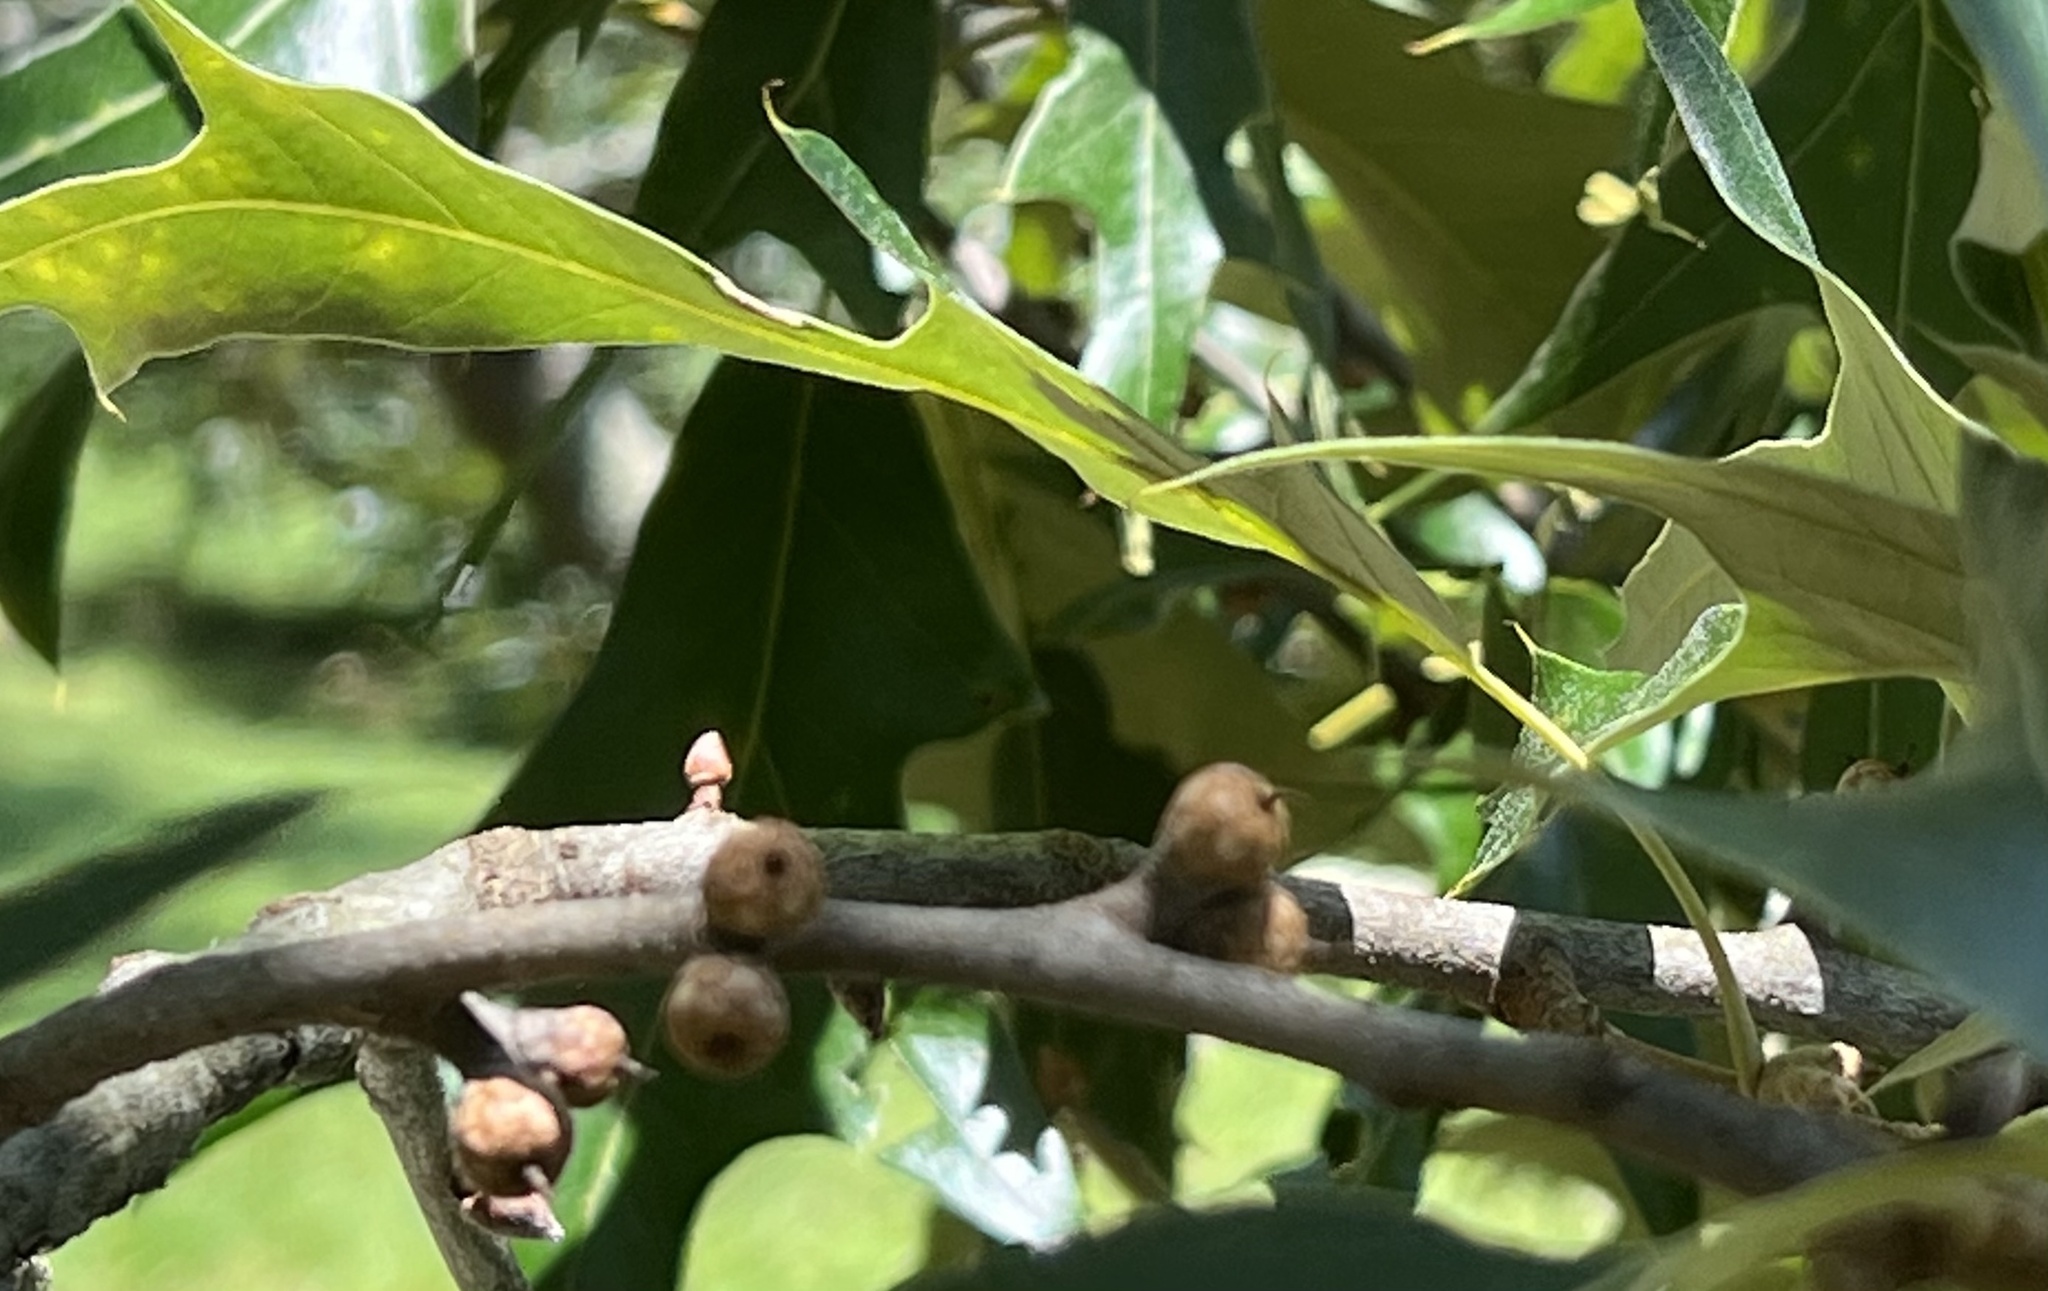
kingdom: Plantae
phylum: Tracheophyta
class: Magnoliopsida
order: Fagales
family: Fagaceae
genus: Quercus
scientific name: Quercus falcata
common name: Southern red oak
